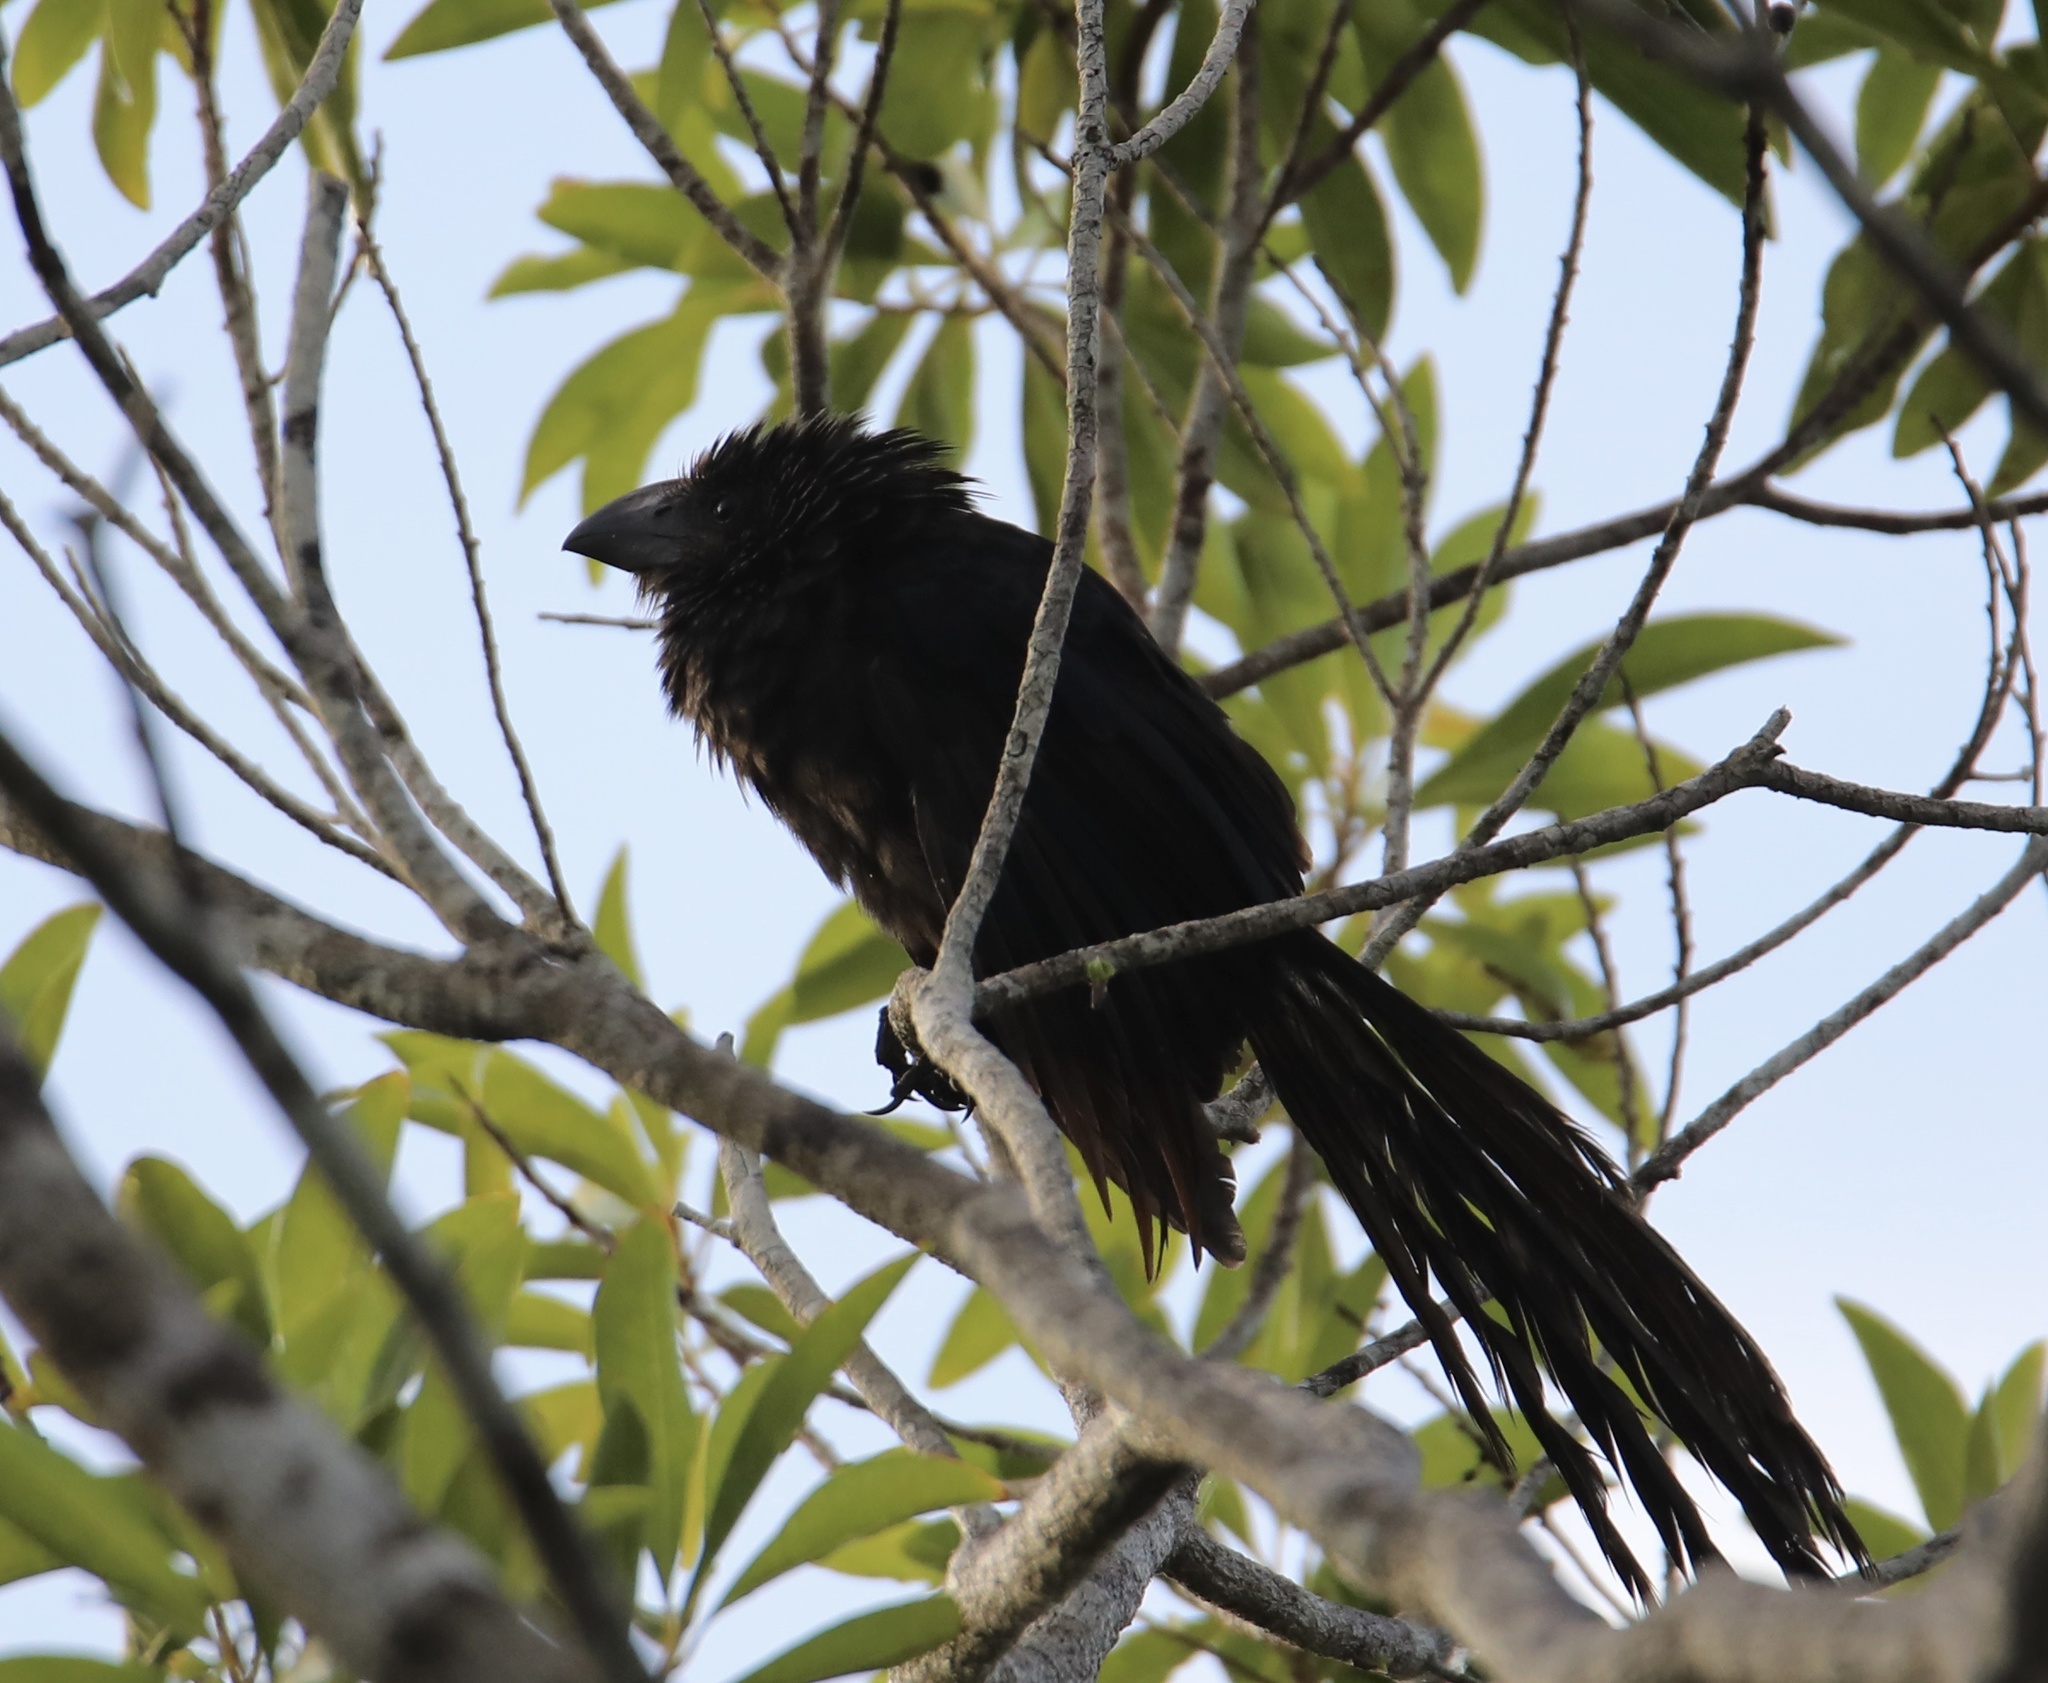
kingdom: Animalia
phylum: Chordata
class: Aves
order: Cuculiformes
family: Cuculidae
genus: Crotophaga
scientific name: Crotophaga ani
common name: Smooth-billed ani
